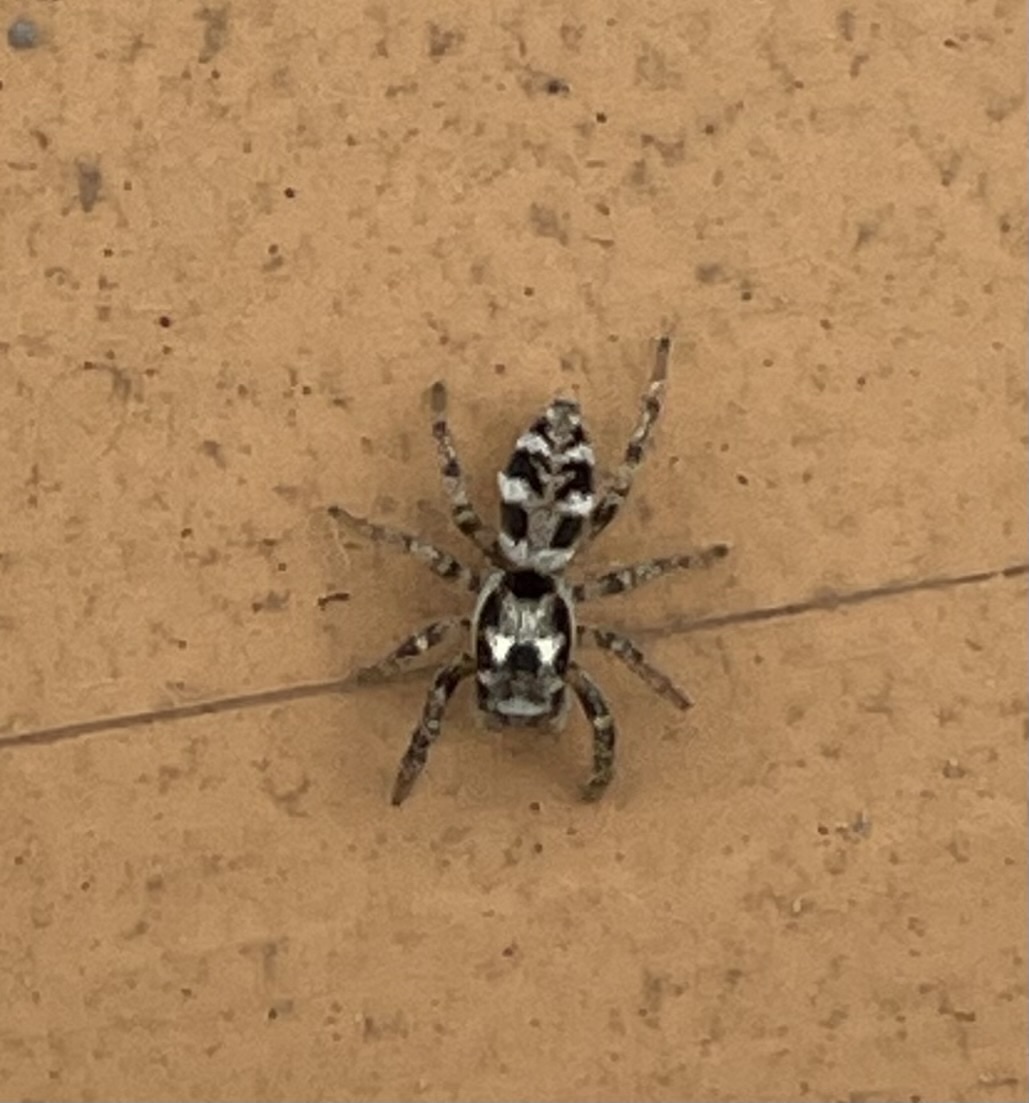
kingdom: Animalia
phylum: Arthropoda
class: Arachnida
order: Araneae
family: Salticidae
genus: Salticus
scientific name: Salticus scenicus
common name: Zebra jumper
